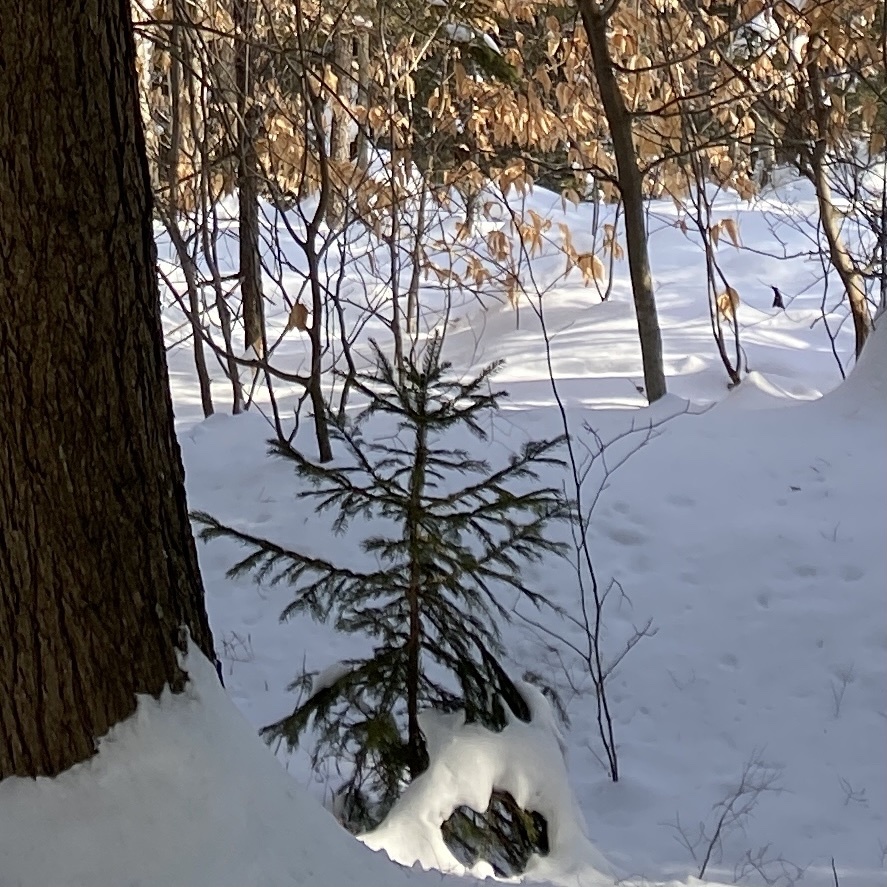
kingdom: Plantae
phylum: Tracheophyta
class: Pinopsida
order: Pinales
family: Pinaceae
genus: Picea
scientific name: Picea rubens
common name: Red spruce
